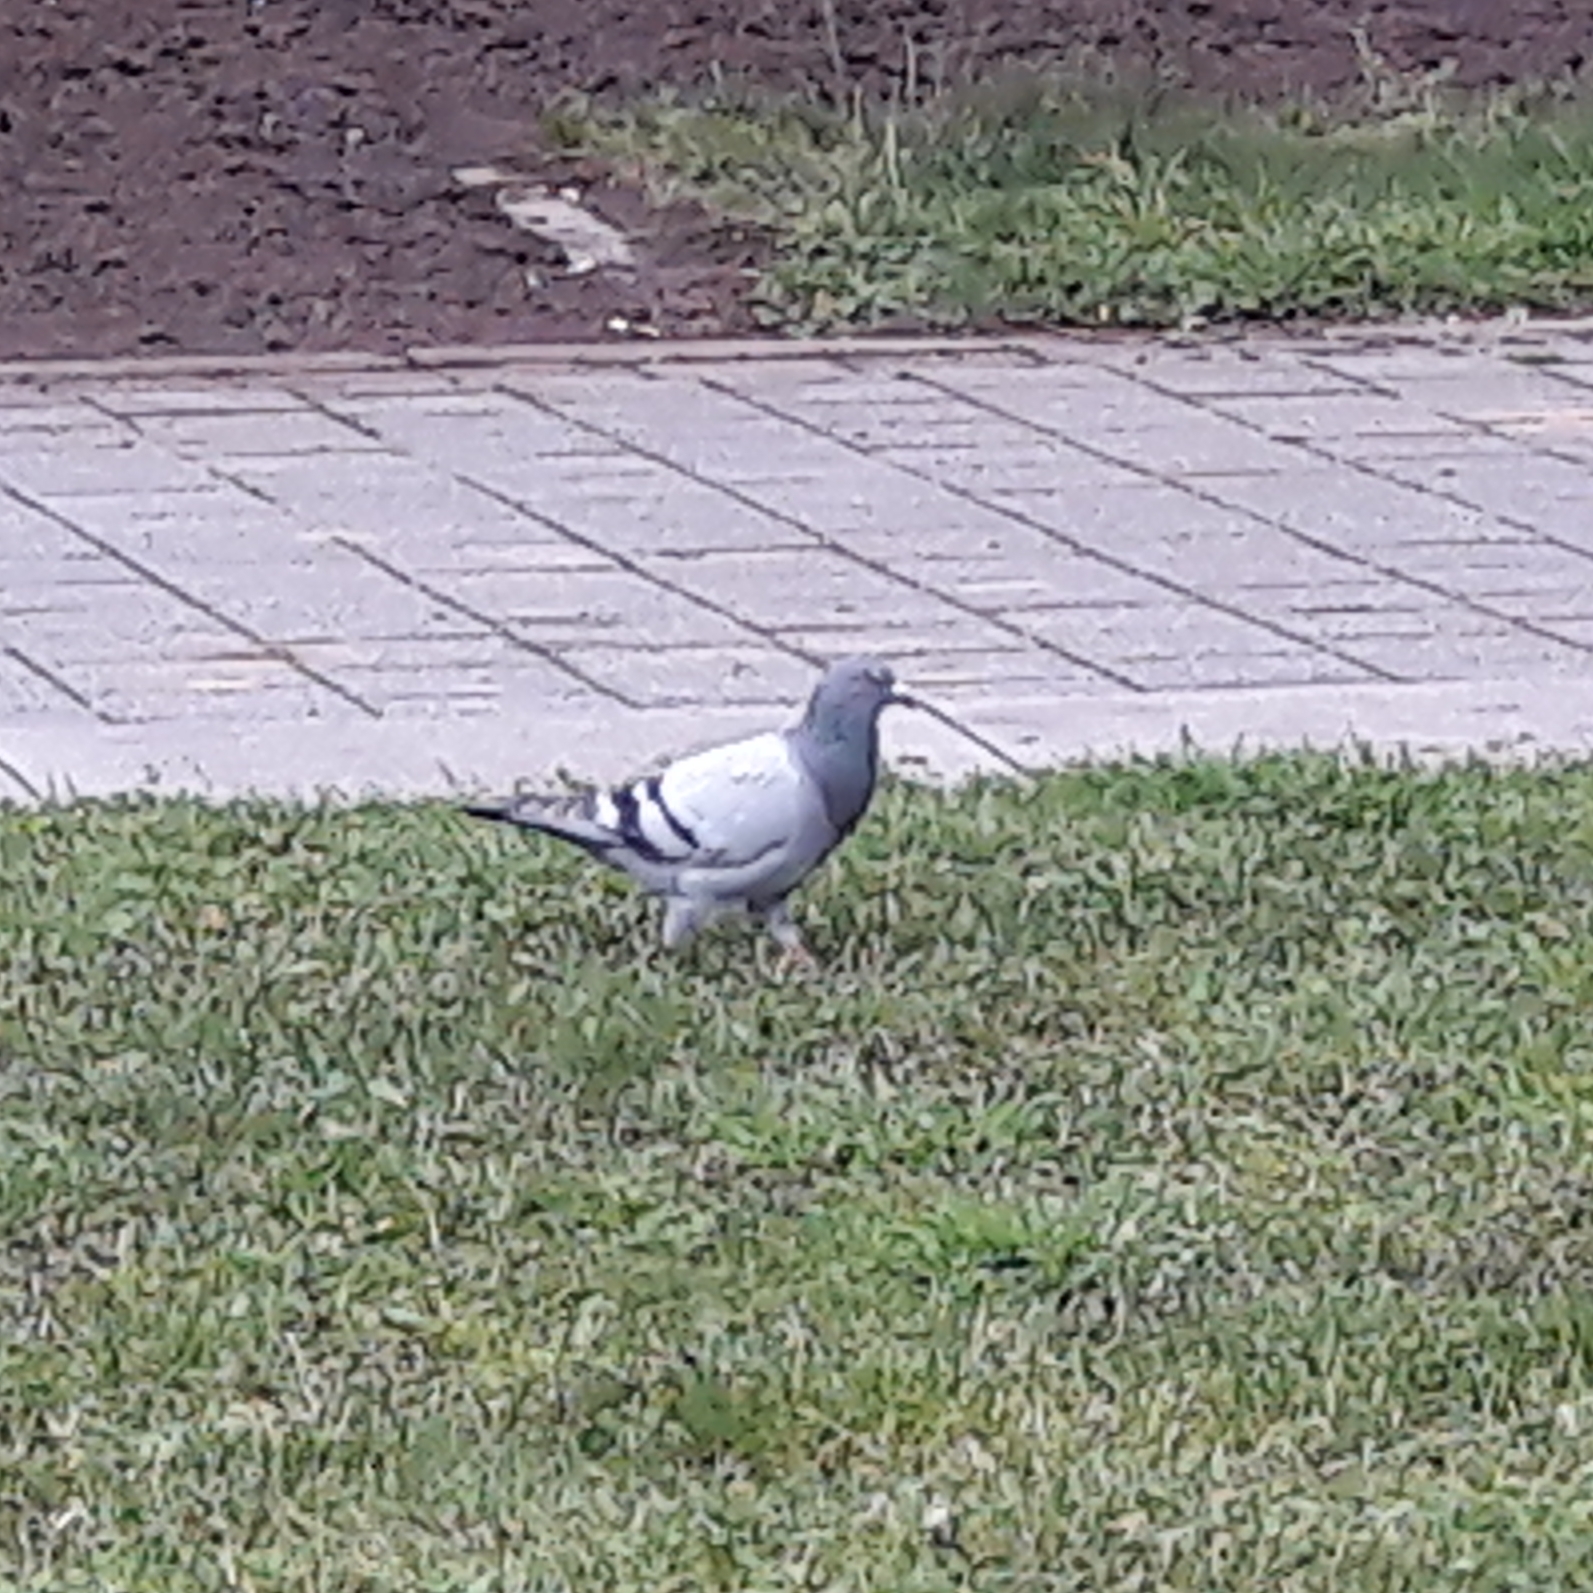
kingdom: Animalia
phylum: Chordata
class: Aves
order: Columbiformes
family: Columbidae
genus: Columba
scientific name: Columba livia
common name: Rock pigeon
